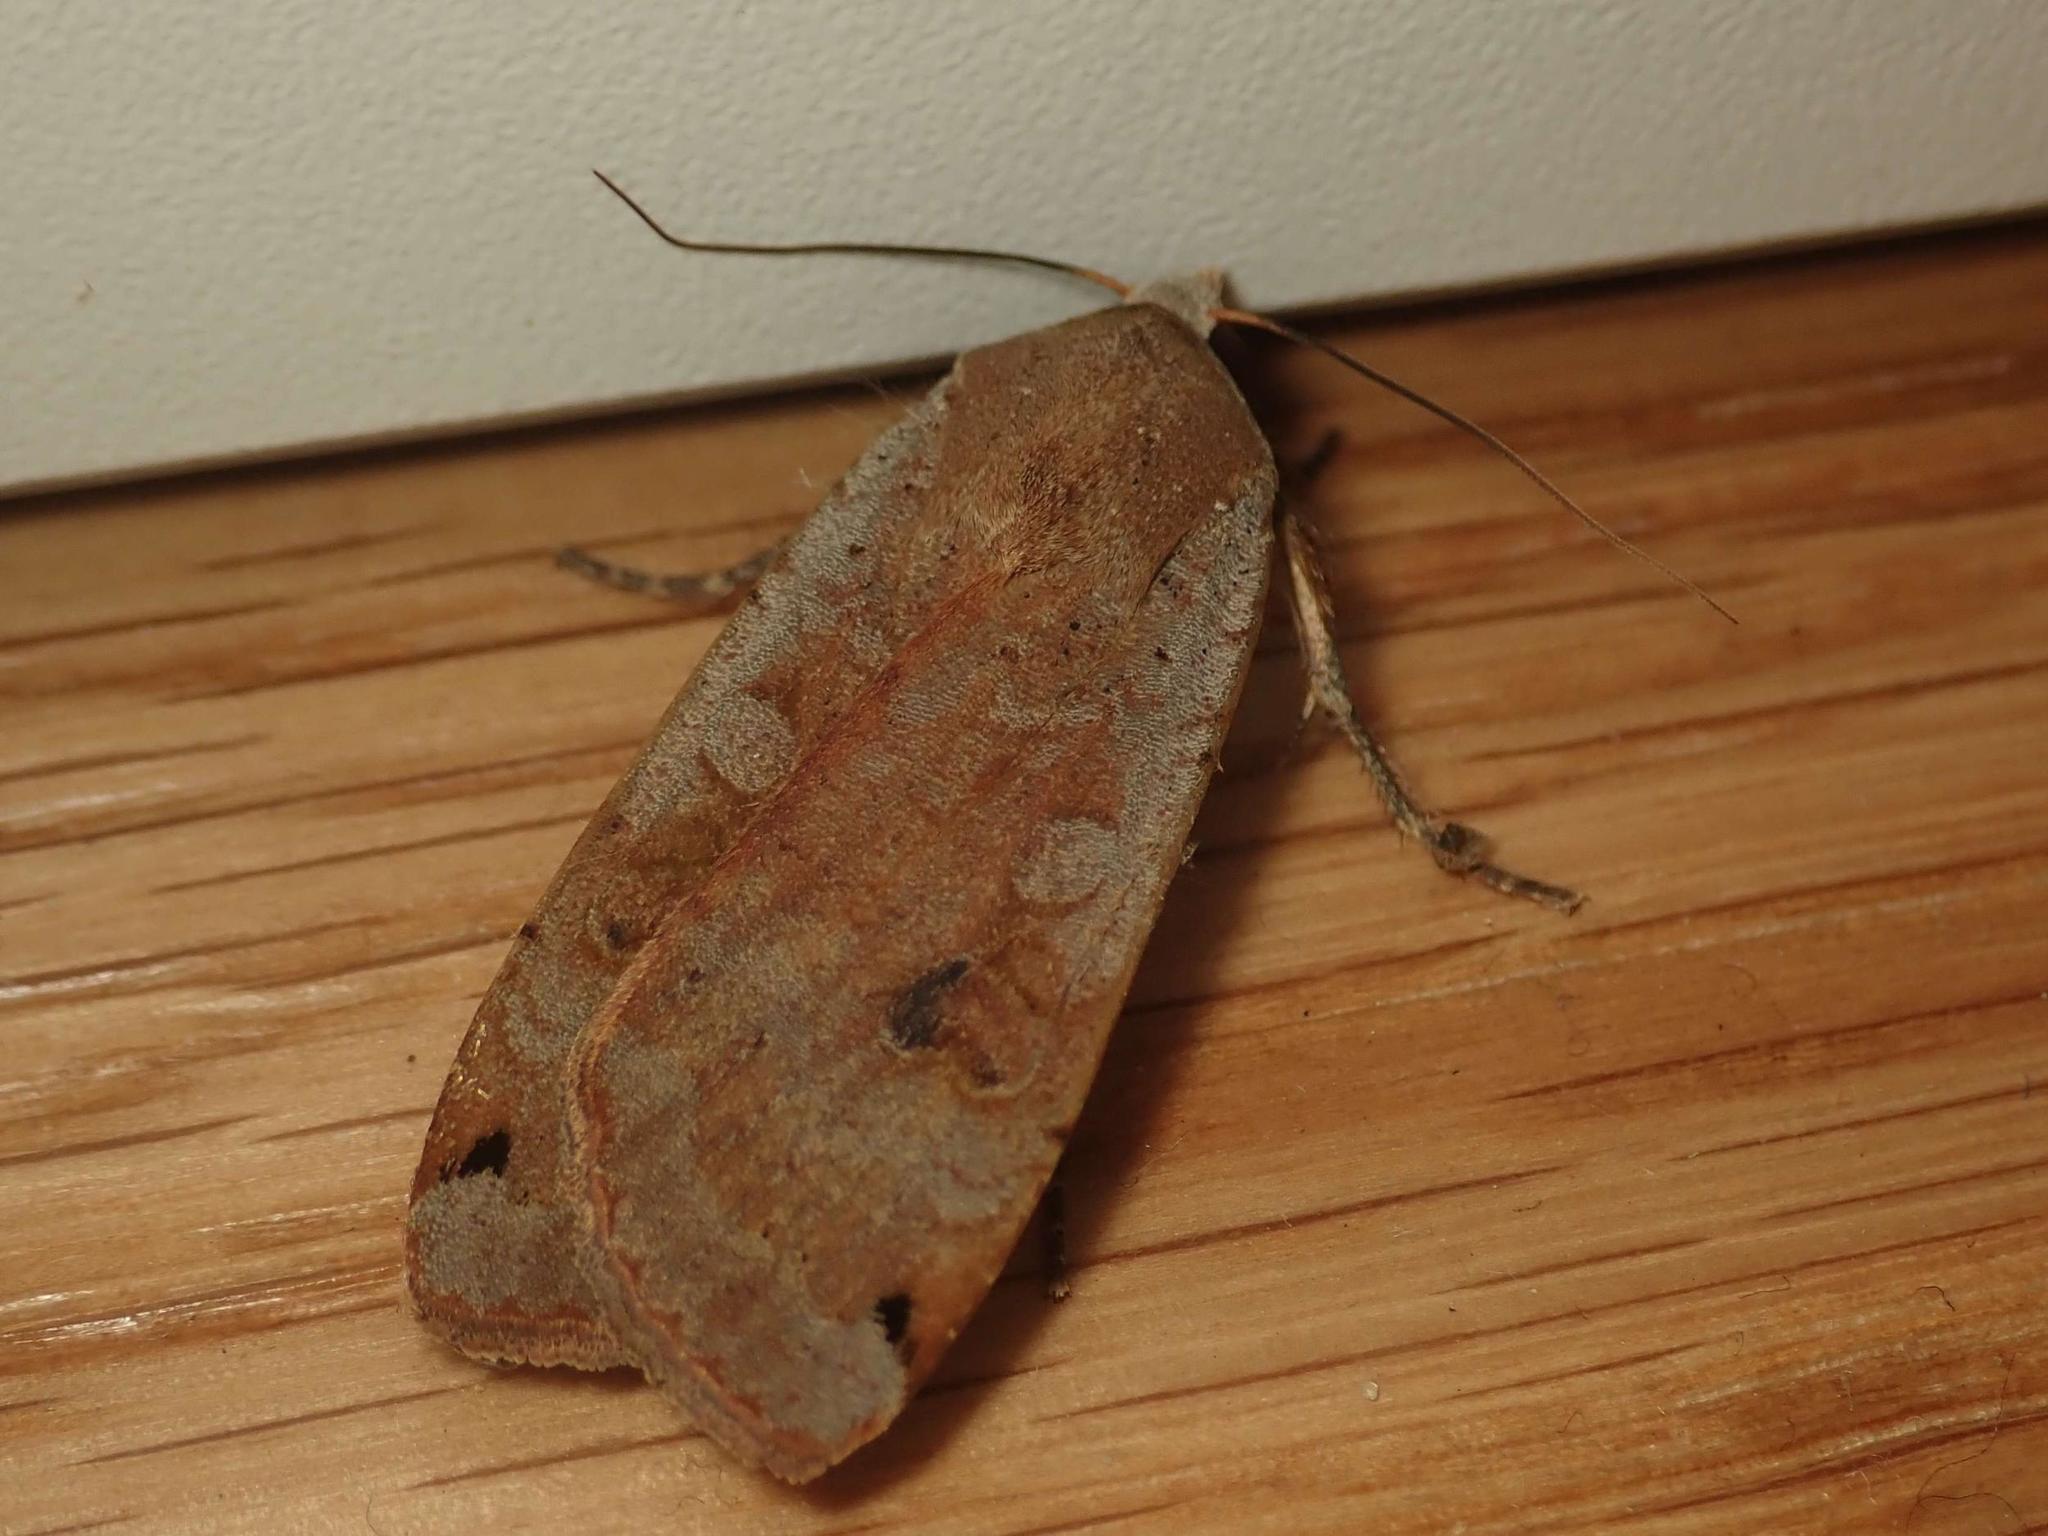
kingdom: Animalia
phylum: Arthropoda
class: Insecta
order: Lepidoptera
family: Noctuidae
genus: Noctua
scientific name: Noctua pronuba
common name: Large yellow underwing
